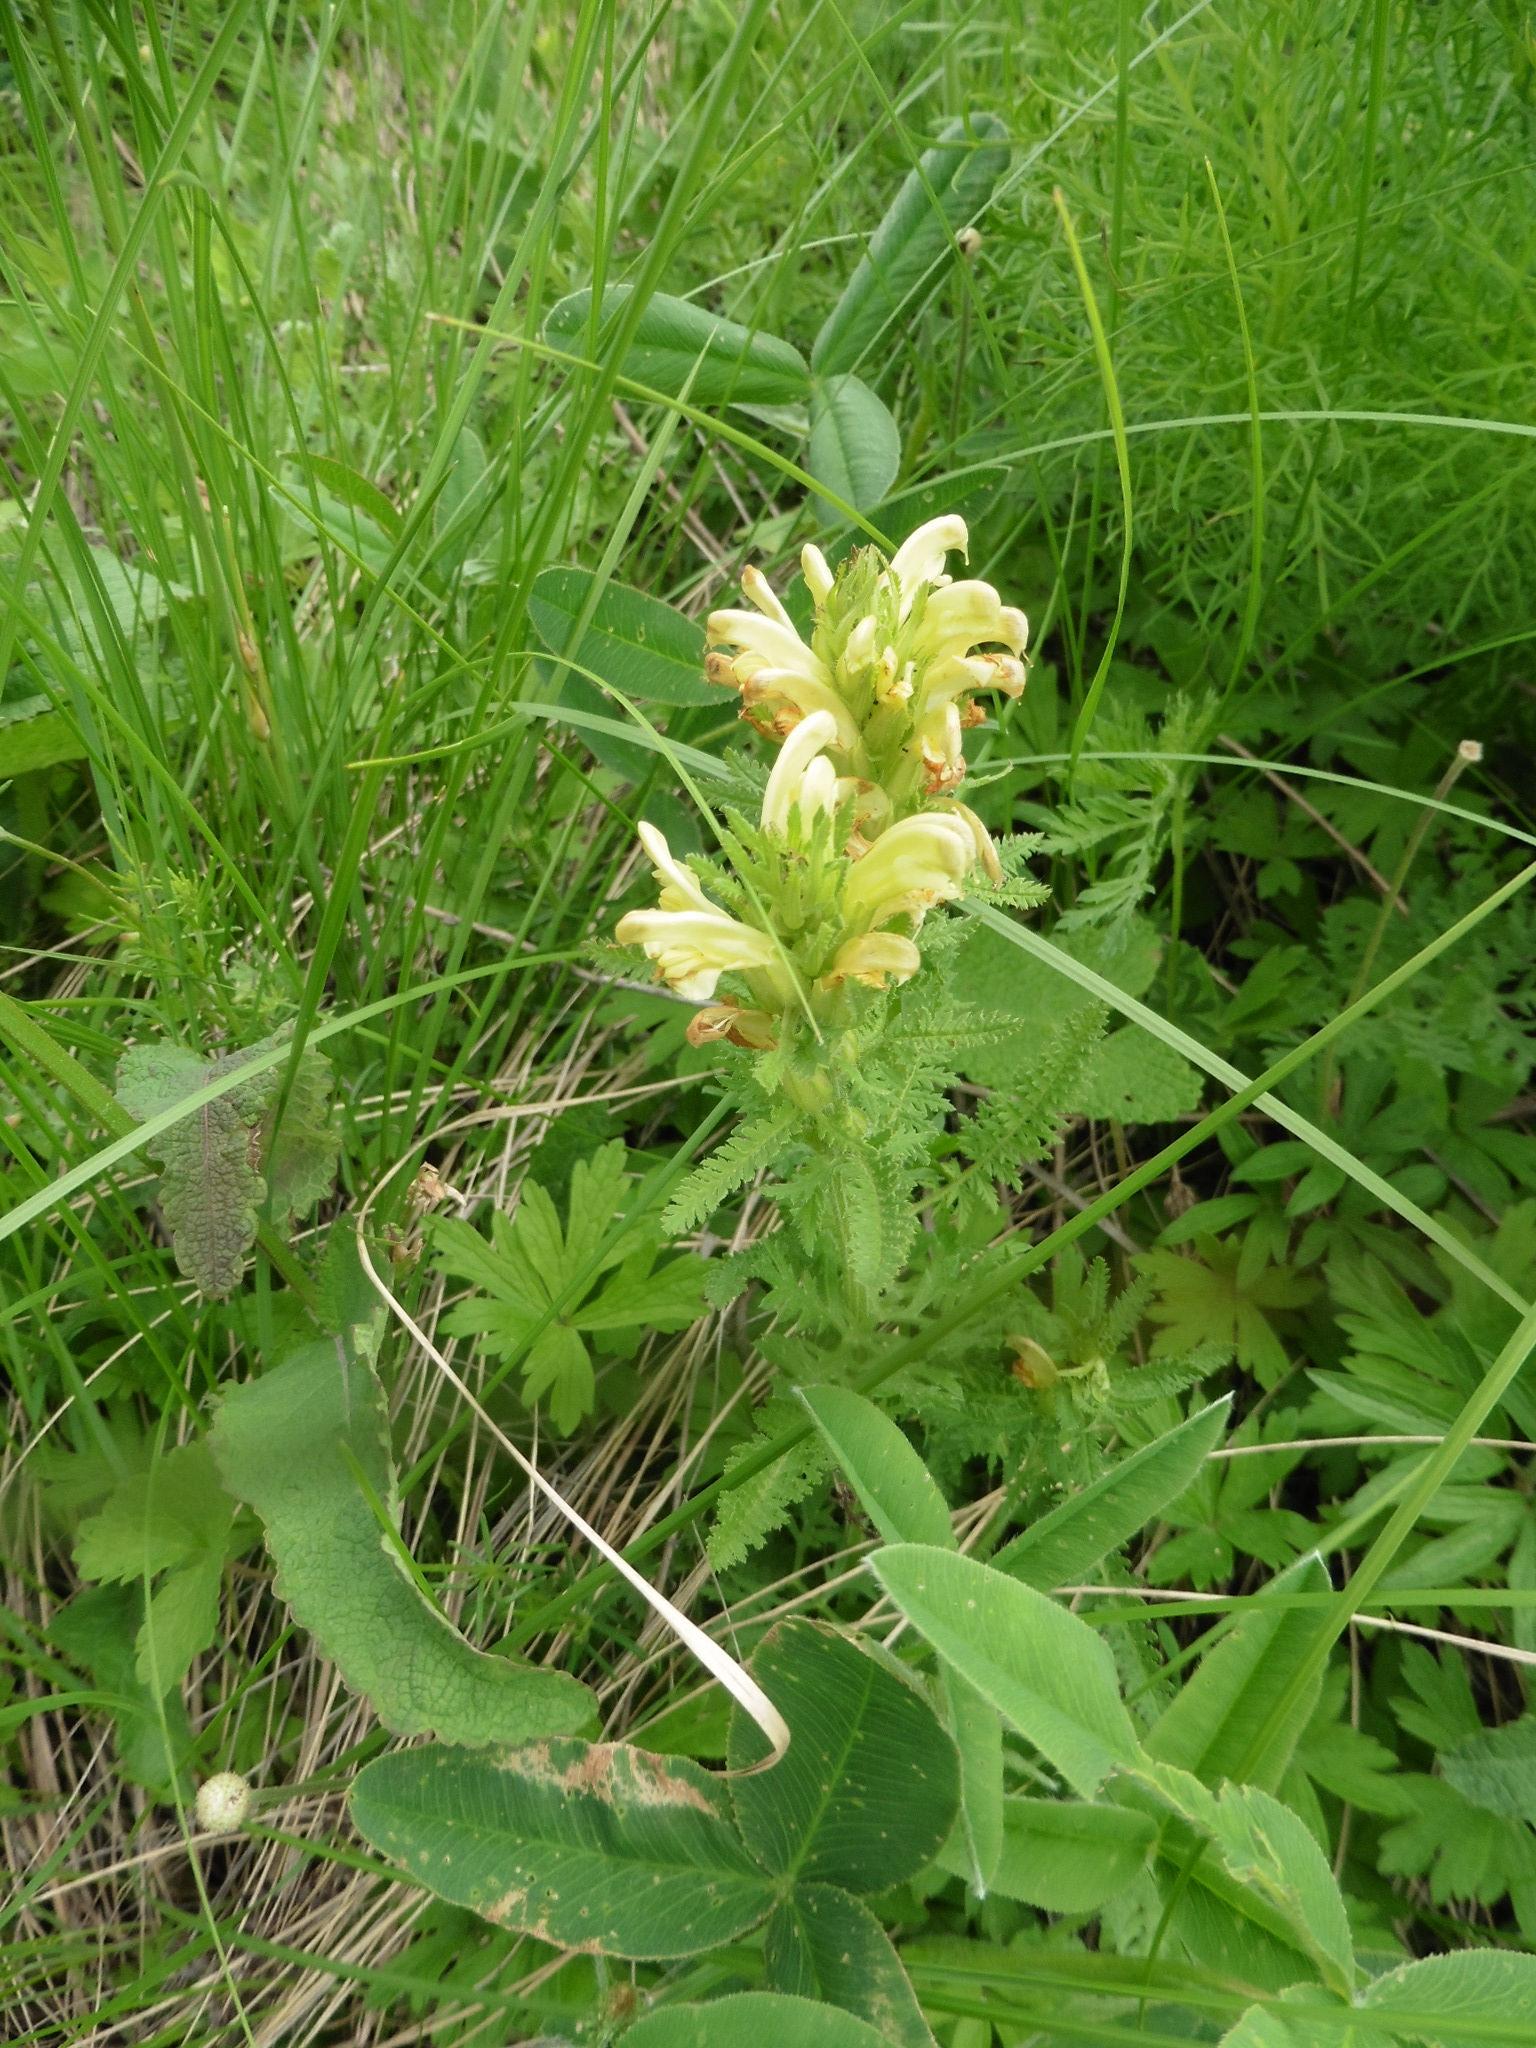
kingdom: Plantae
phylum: Tracheophyta
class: Magnoliopsida
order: Lamiales
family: Orobanchaceae
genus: Pedicularis
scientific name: Pedicularis kaufmannii
